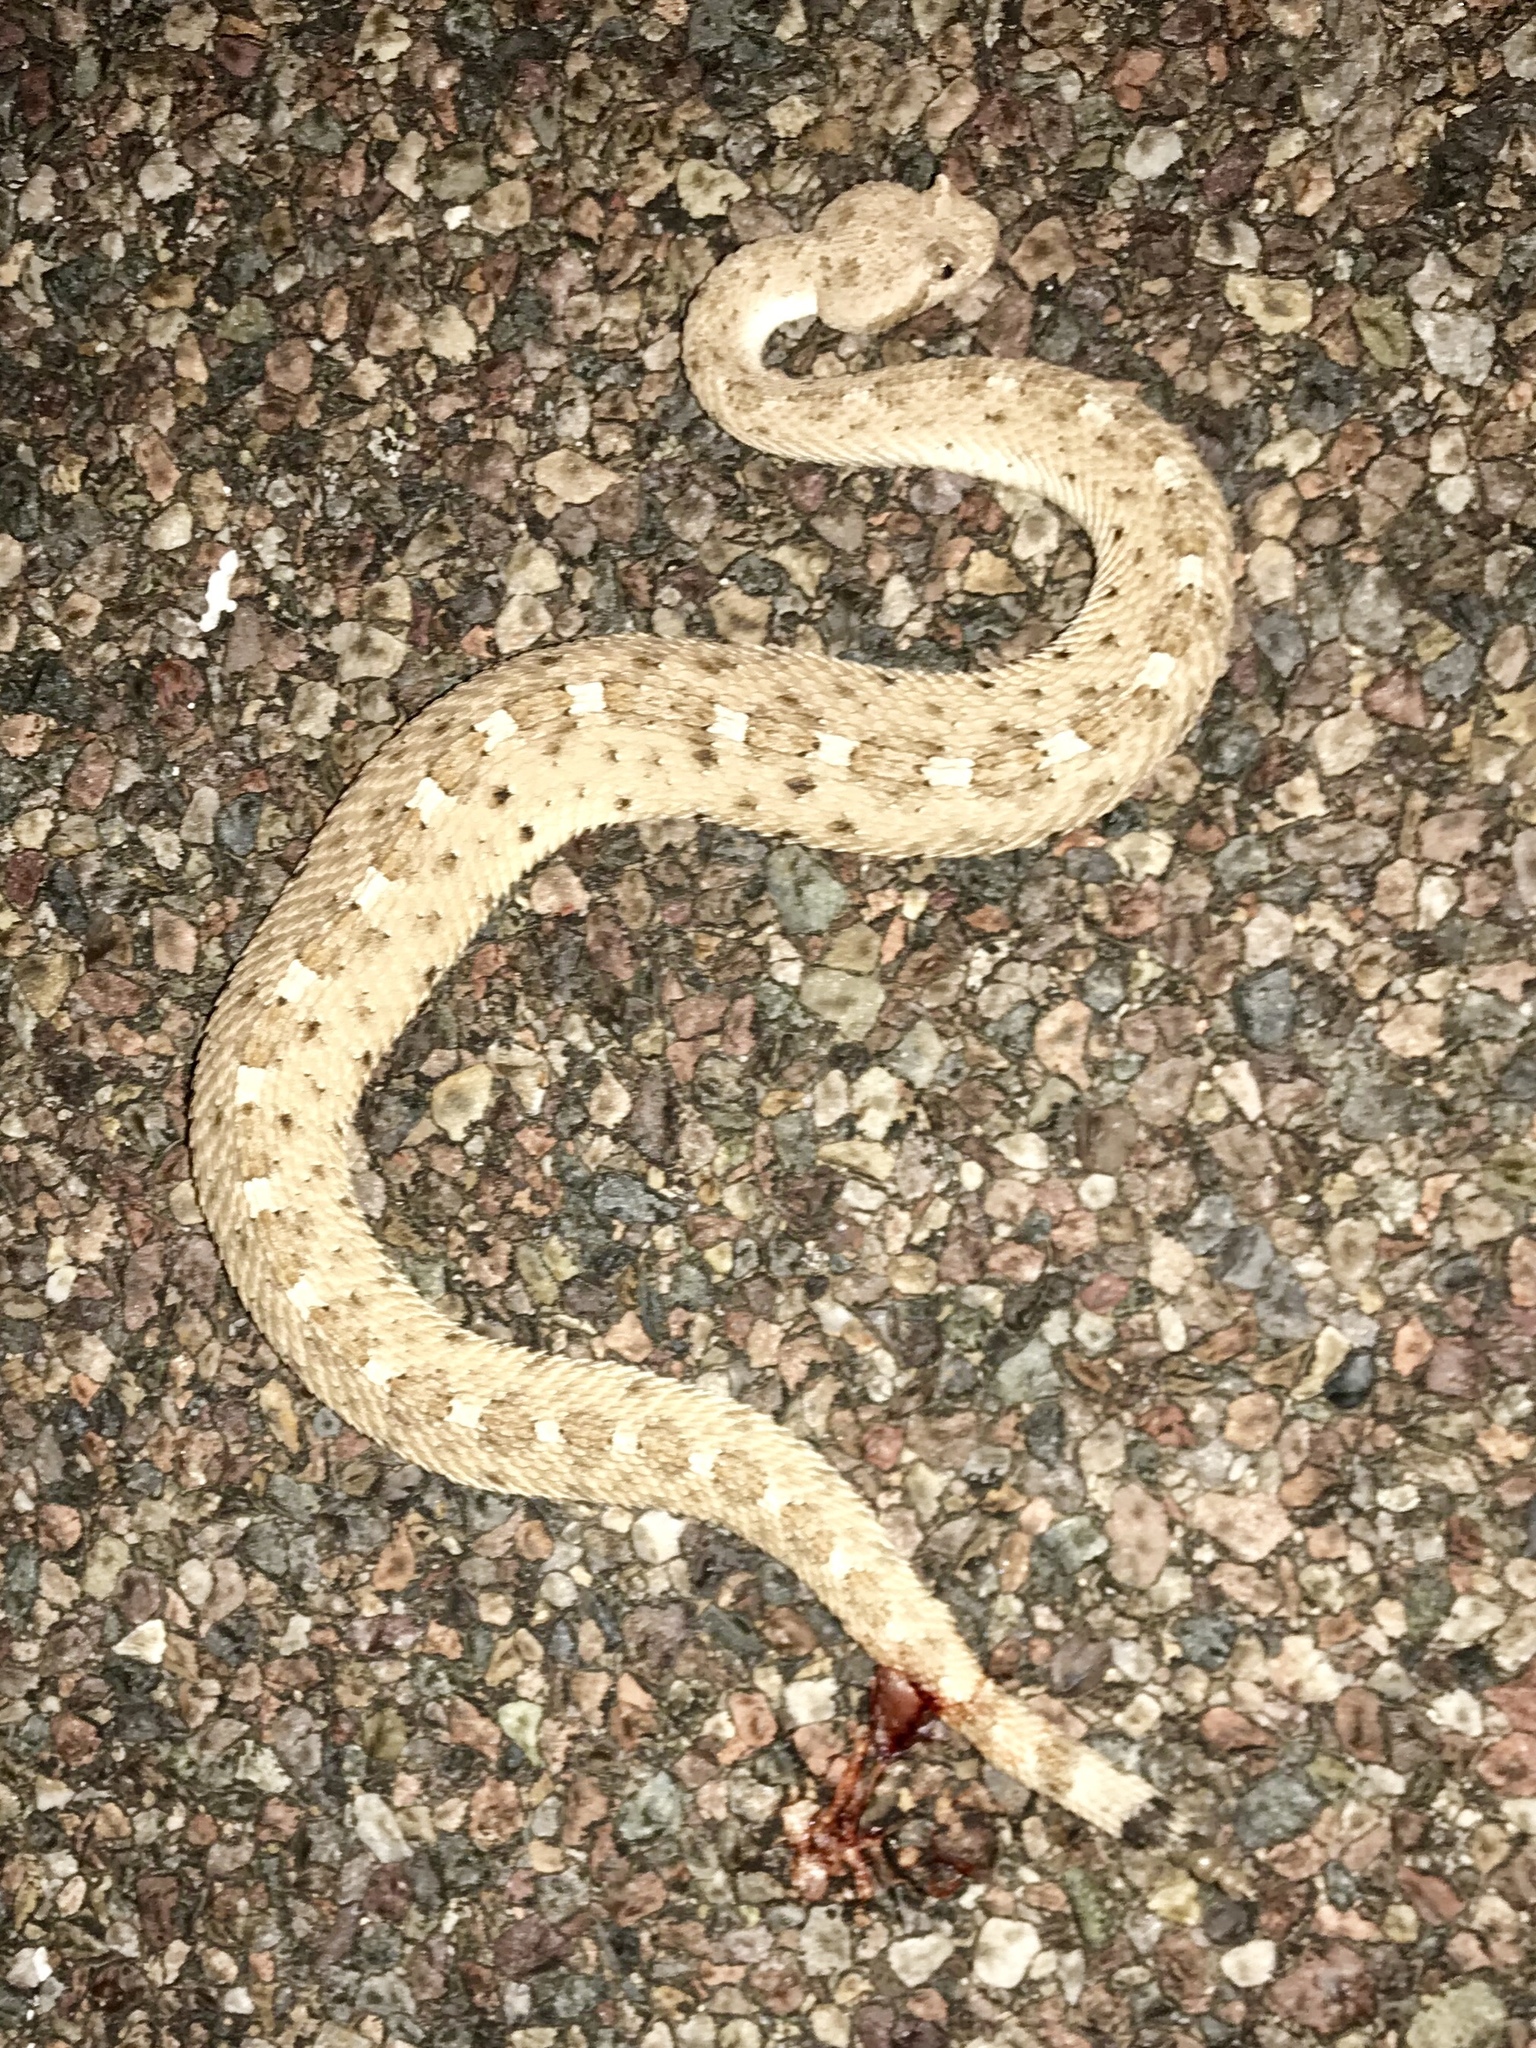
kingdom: Animalia
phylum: Chordata
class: Squamata
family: Viperidae
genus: Crotalus
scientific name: Crotalus cerastes
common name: Sidewinder
